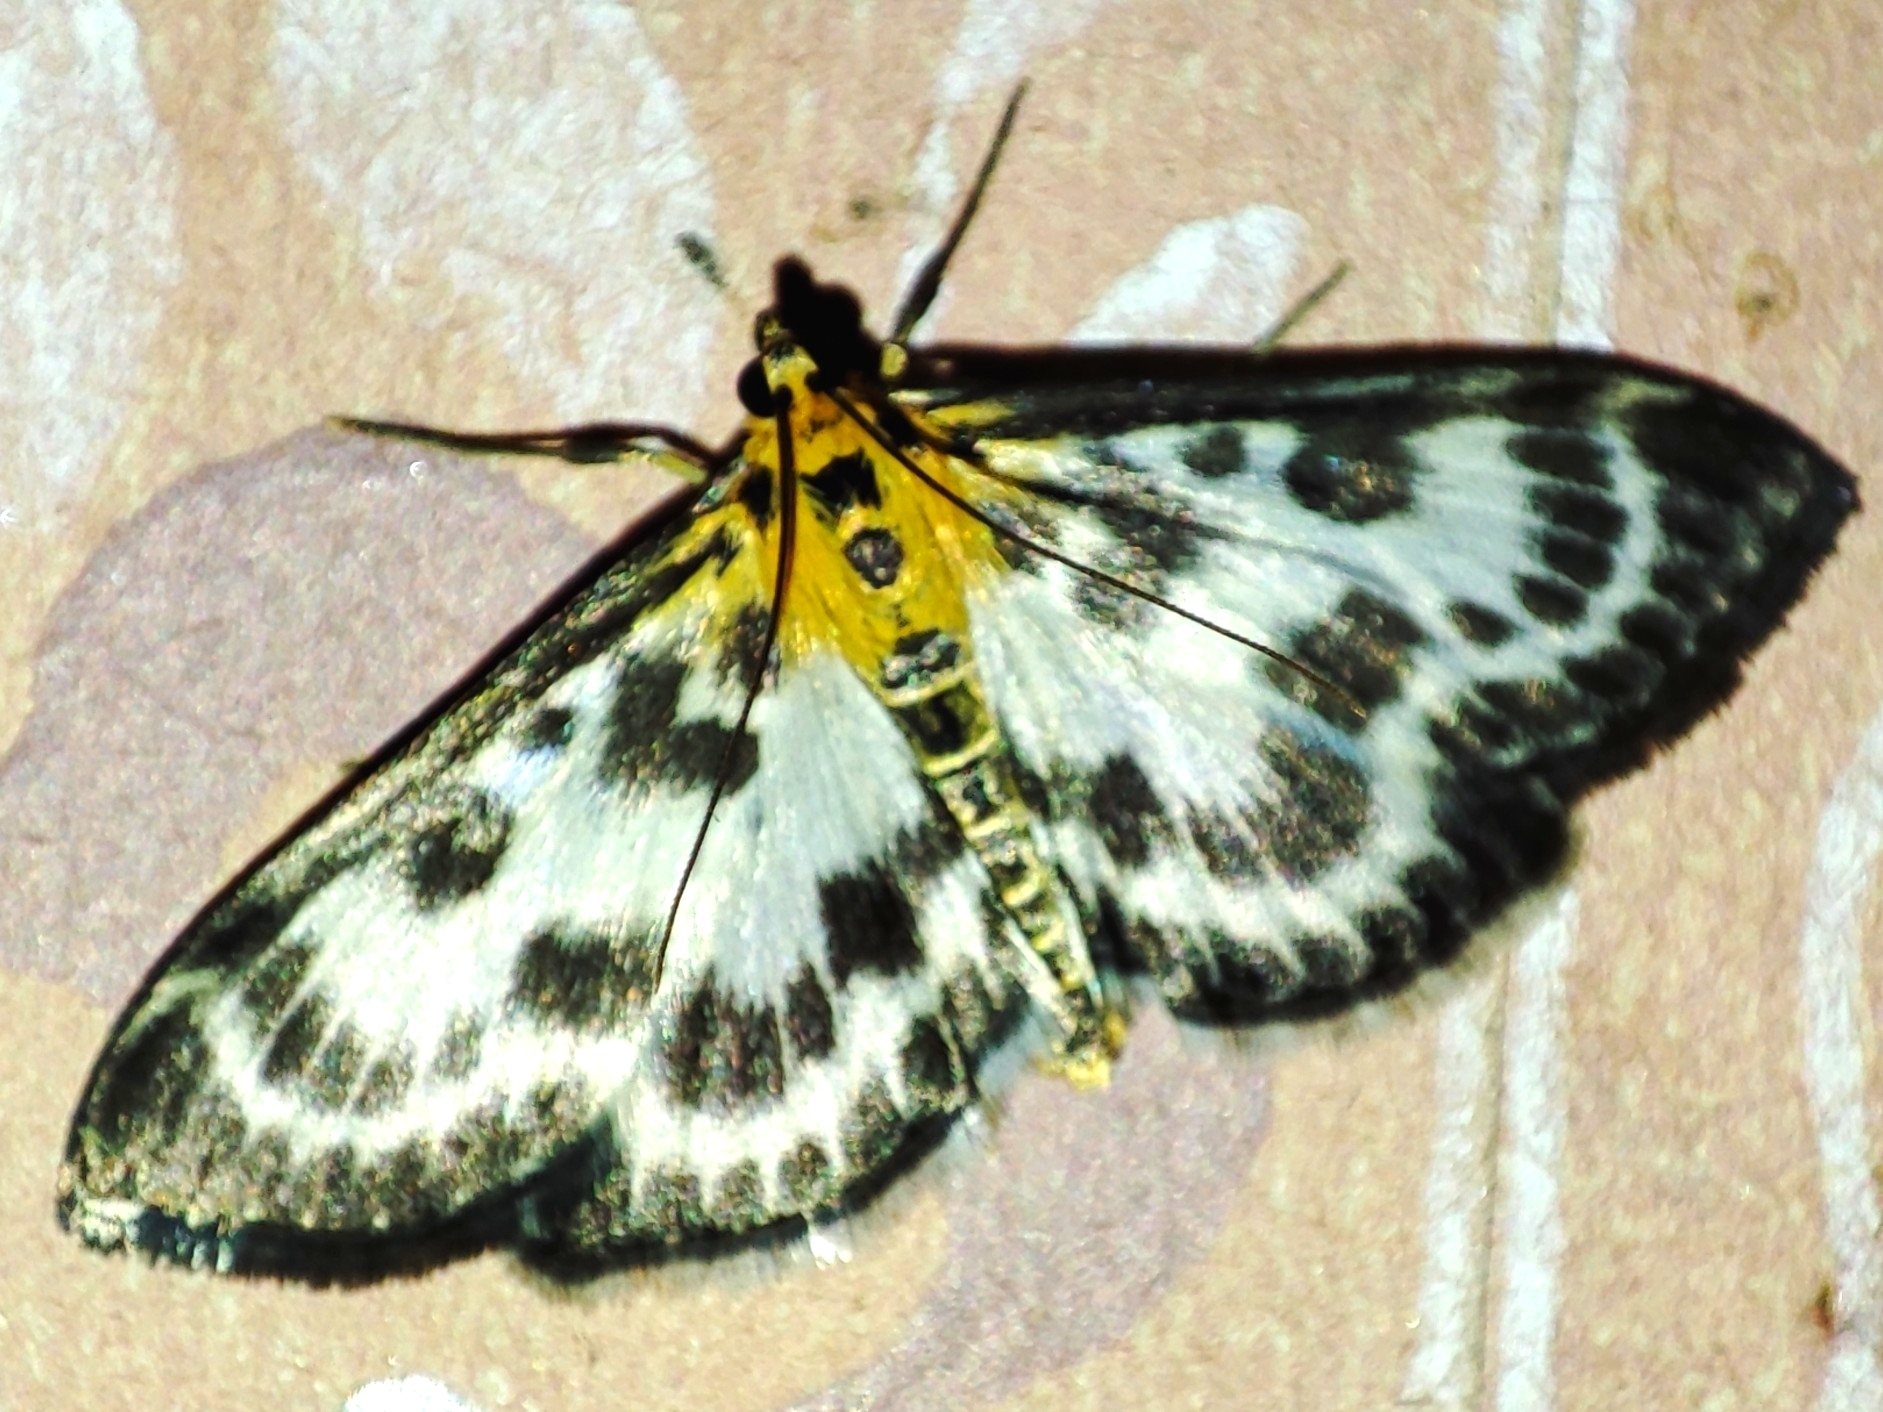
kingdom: Animalia
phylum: Arthropoda
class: Insecta
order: Lepidoptera
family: Crambidae
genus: Anania
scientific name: Anania hortulata
